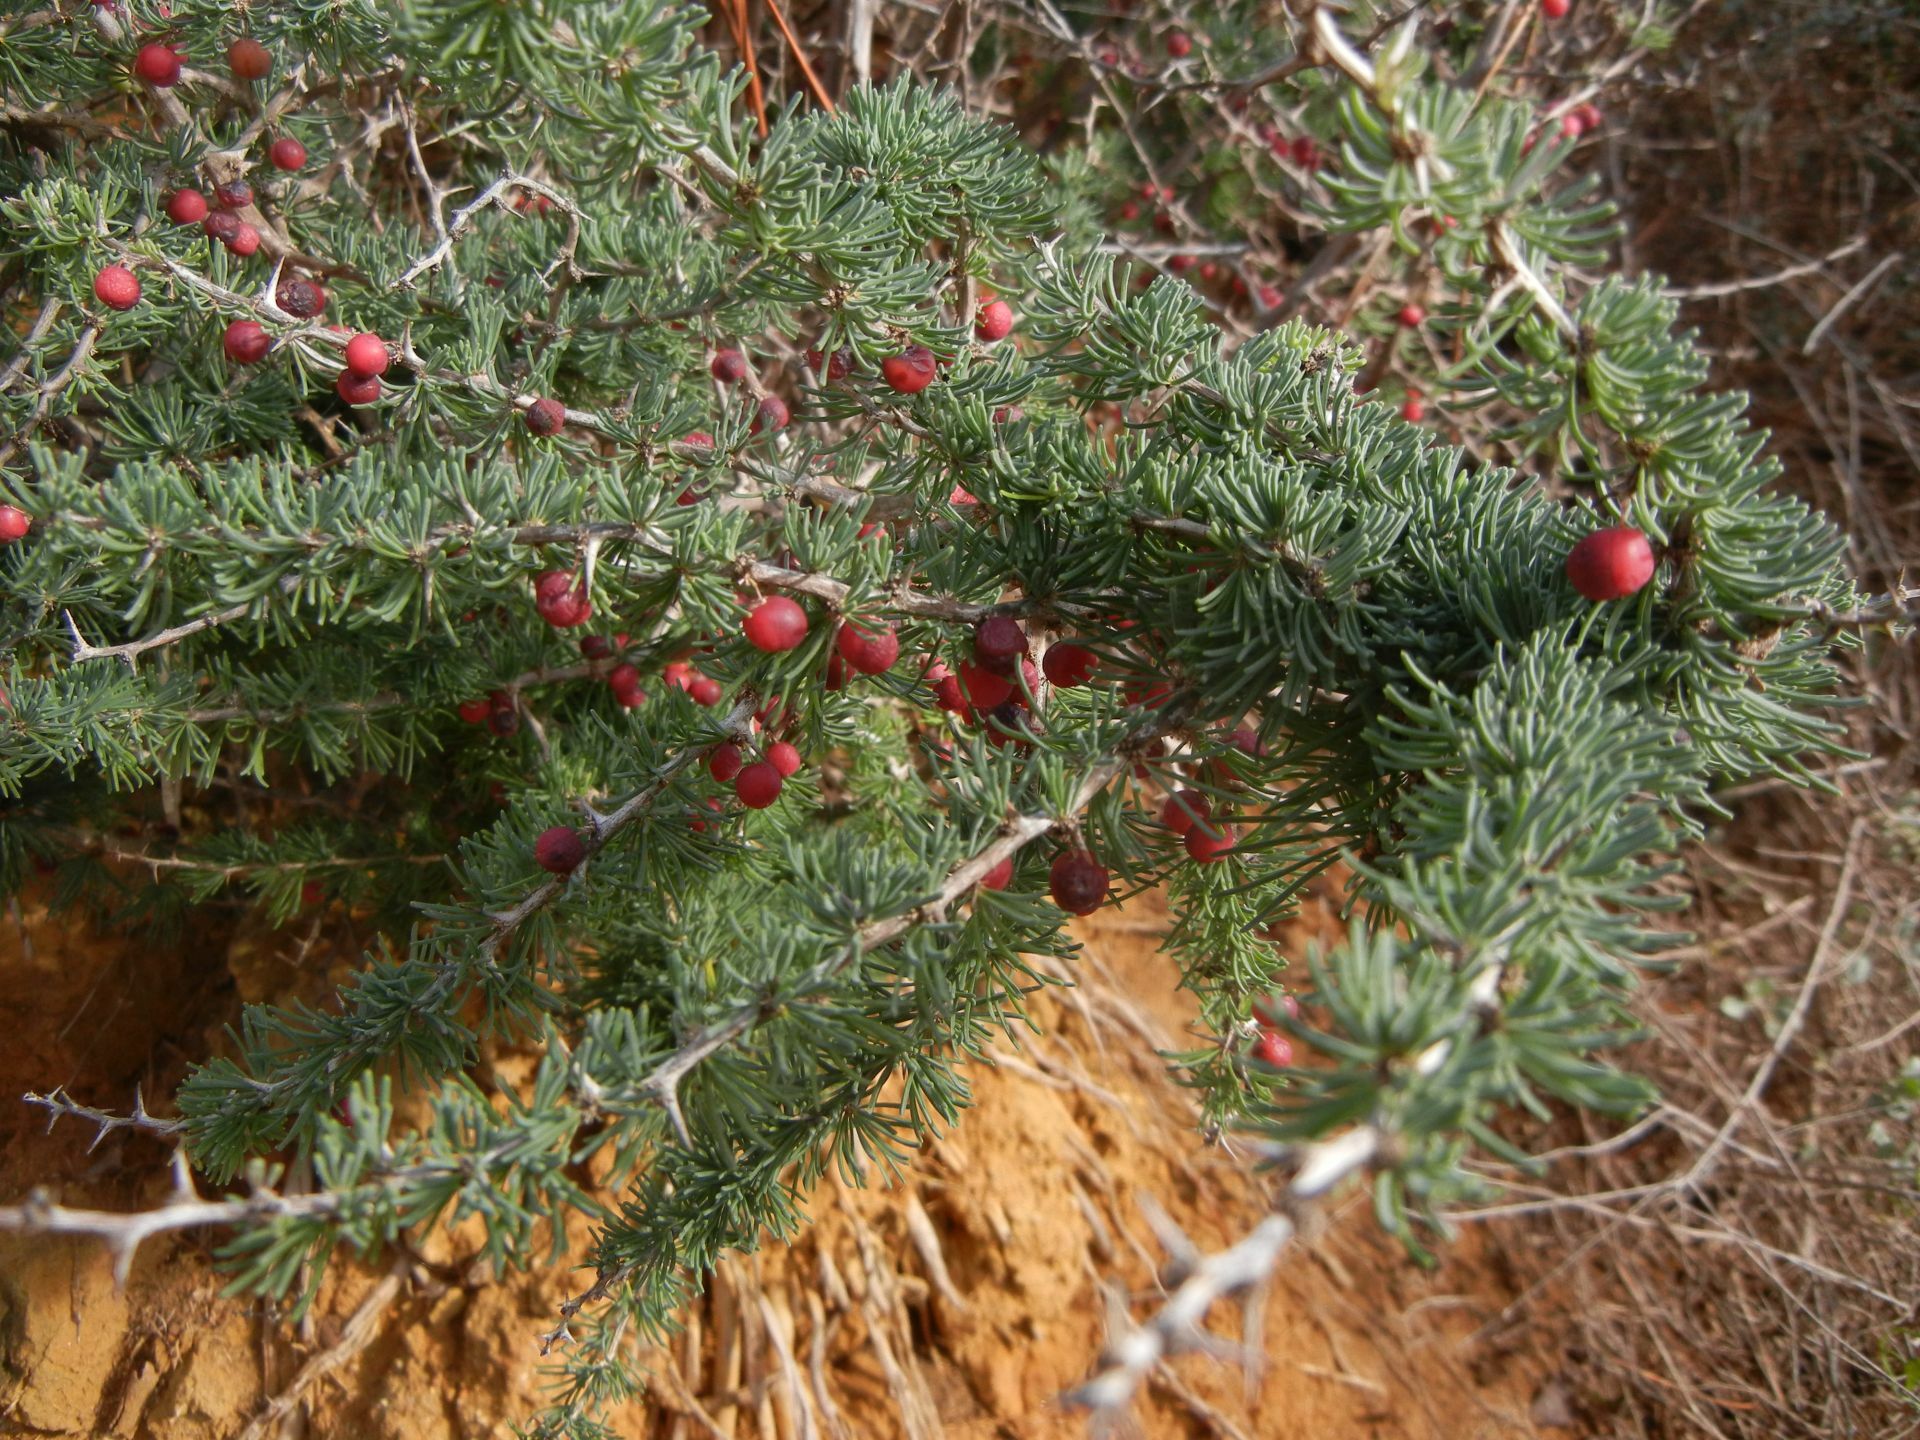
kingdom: Plantae
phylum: Tracheophyta
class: Liliopsida
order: Asparagales
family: Asparagaceae
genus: Asparagus
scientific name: Asparagus albus
